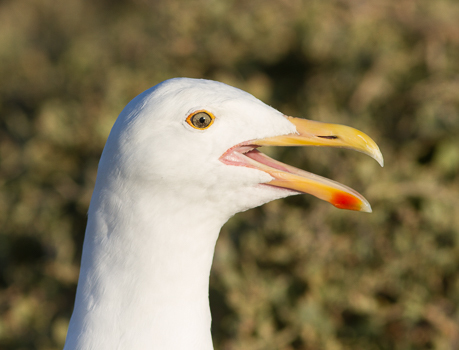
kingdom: Animalia
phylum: Chordata
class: Aves
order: Charadriiformes
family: Laridae
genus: Larus
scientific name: Larus occidentalis
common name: Western gull
